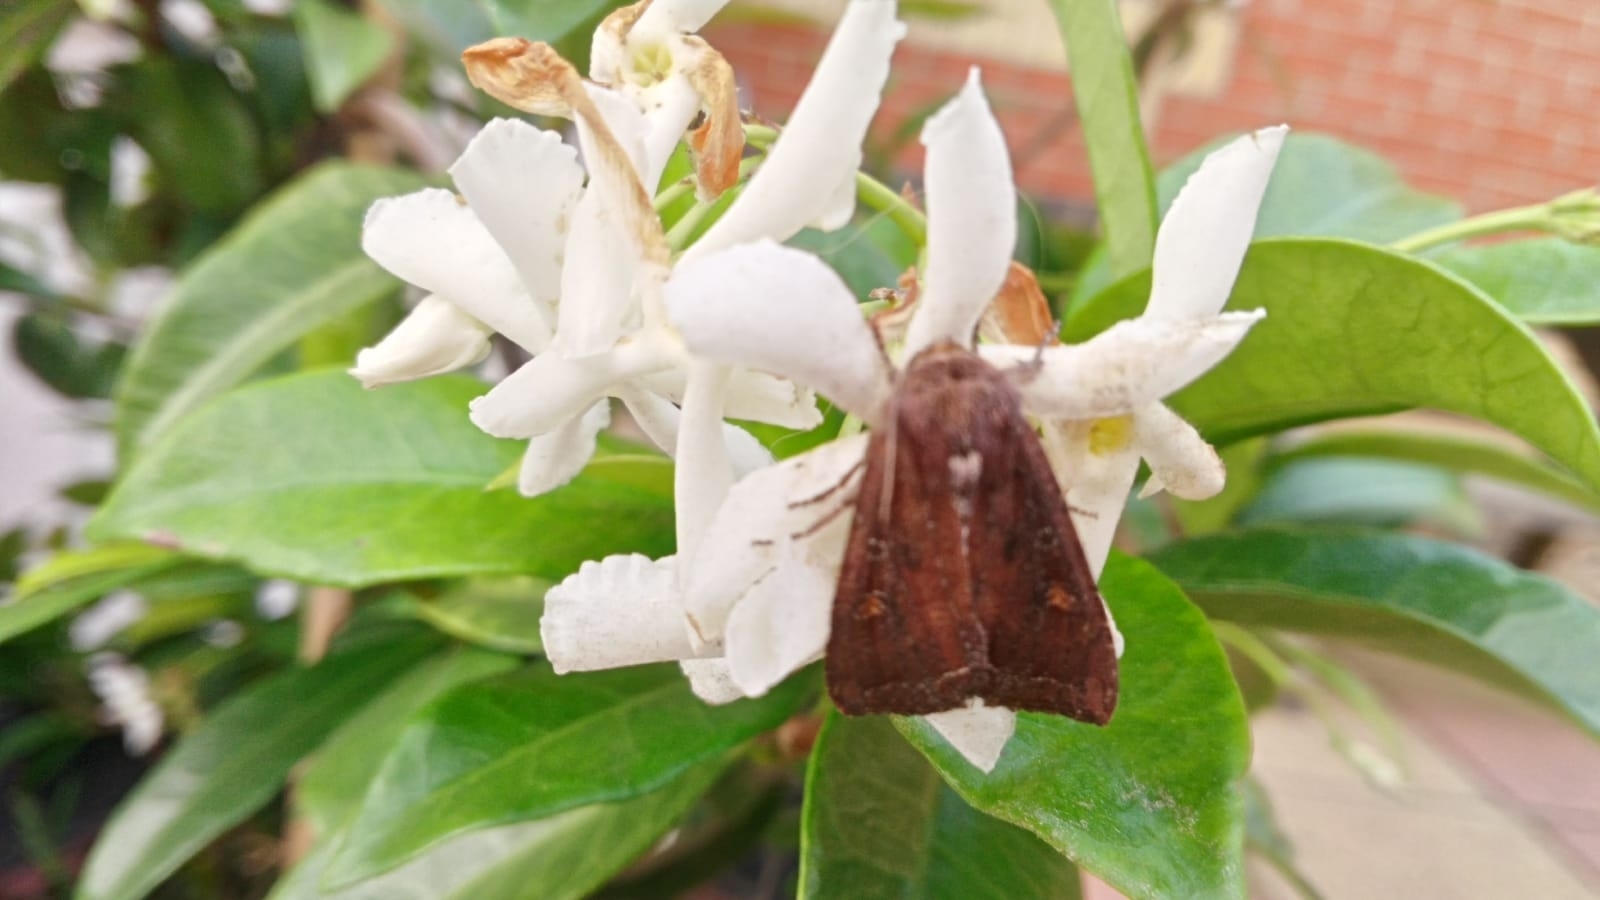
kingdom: Animalia
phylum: Arthropoda
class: Insecta
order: Lepidoptera
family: Noctuidae
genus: Lacanobia
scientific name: Lacanobia oleracea
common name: Bright-line brown-eye
